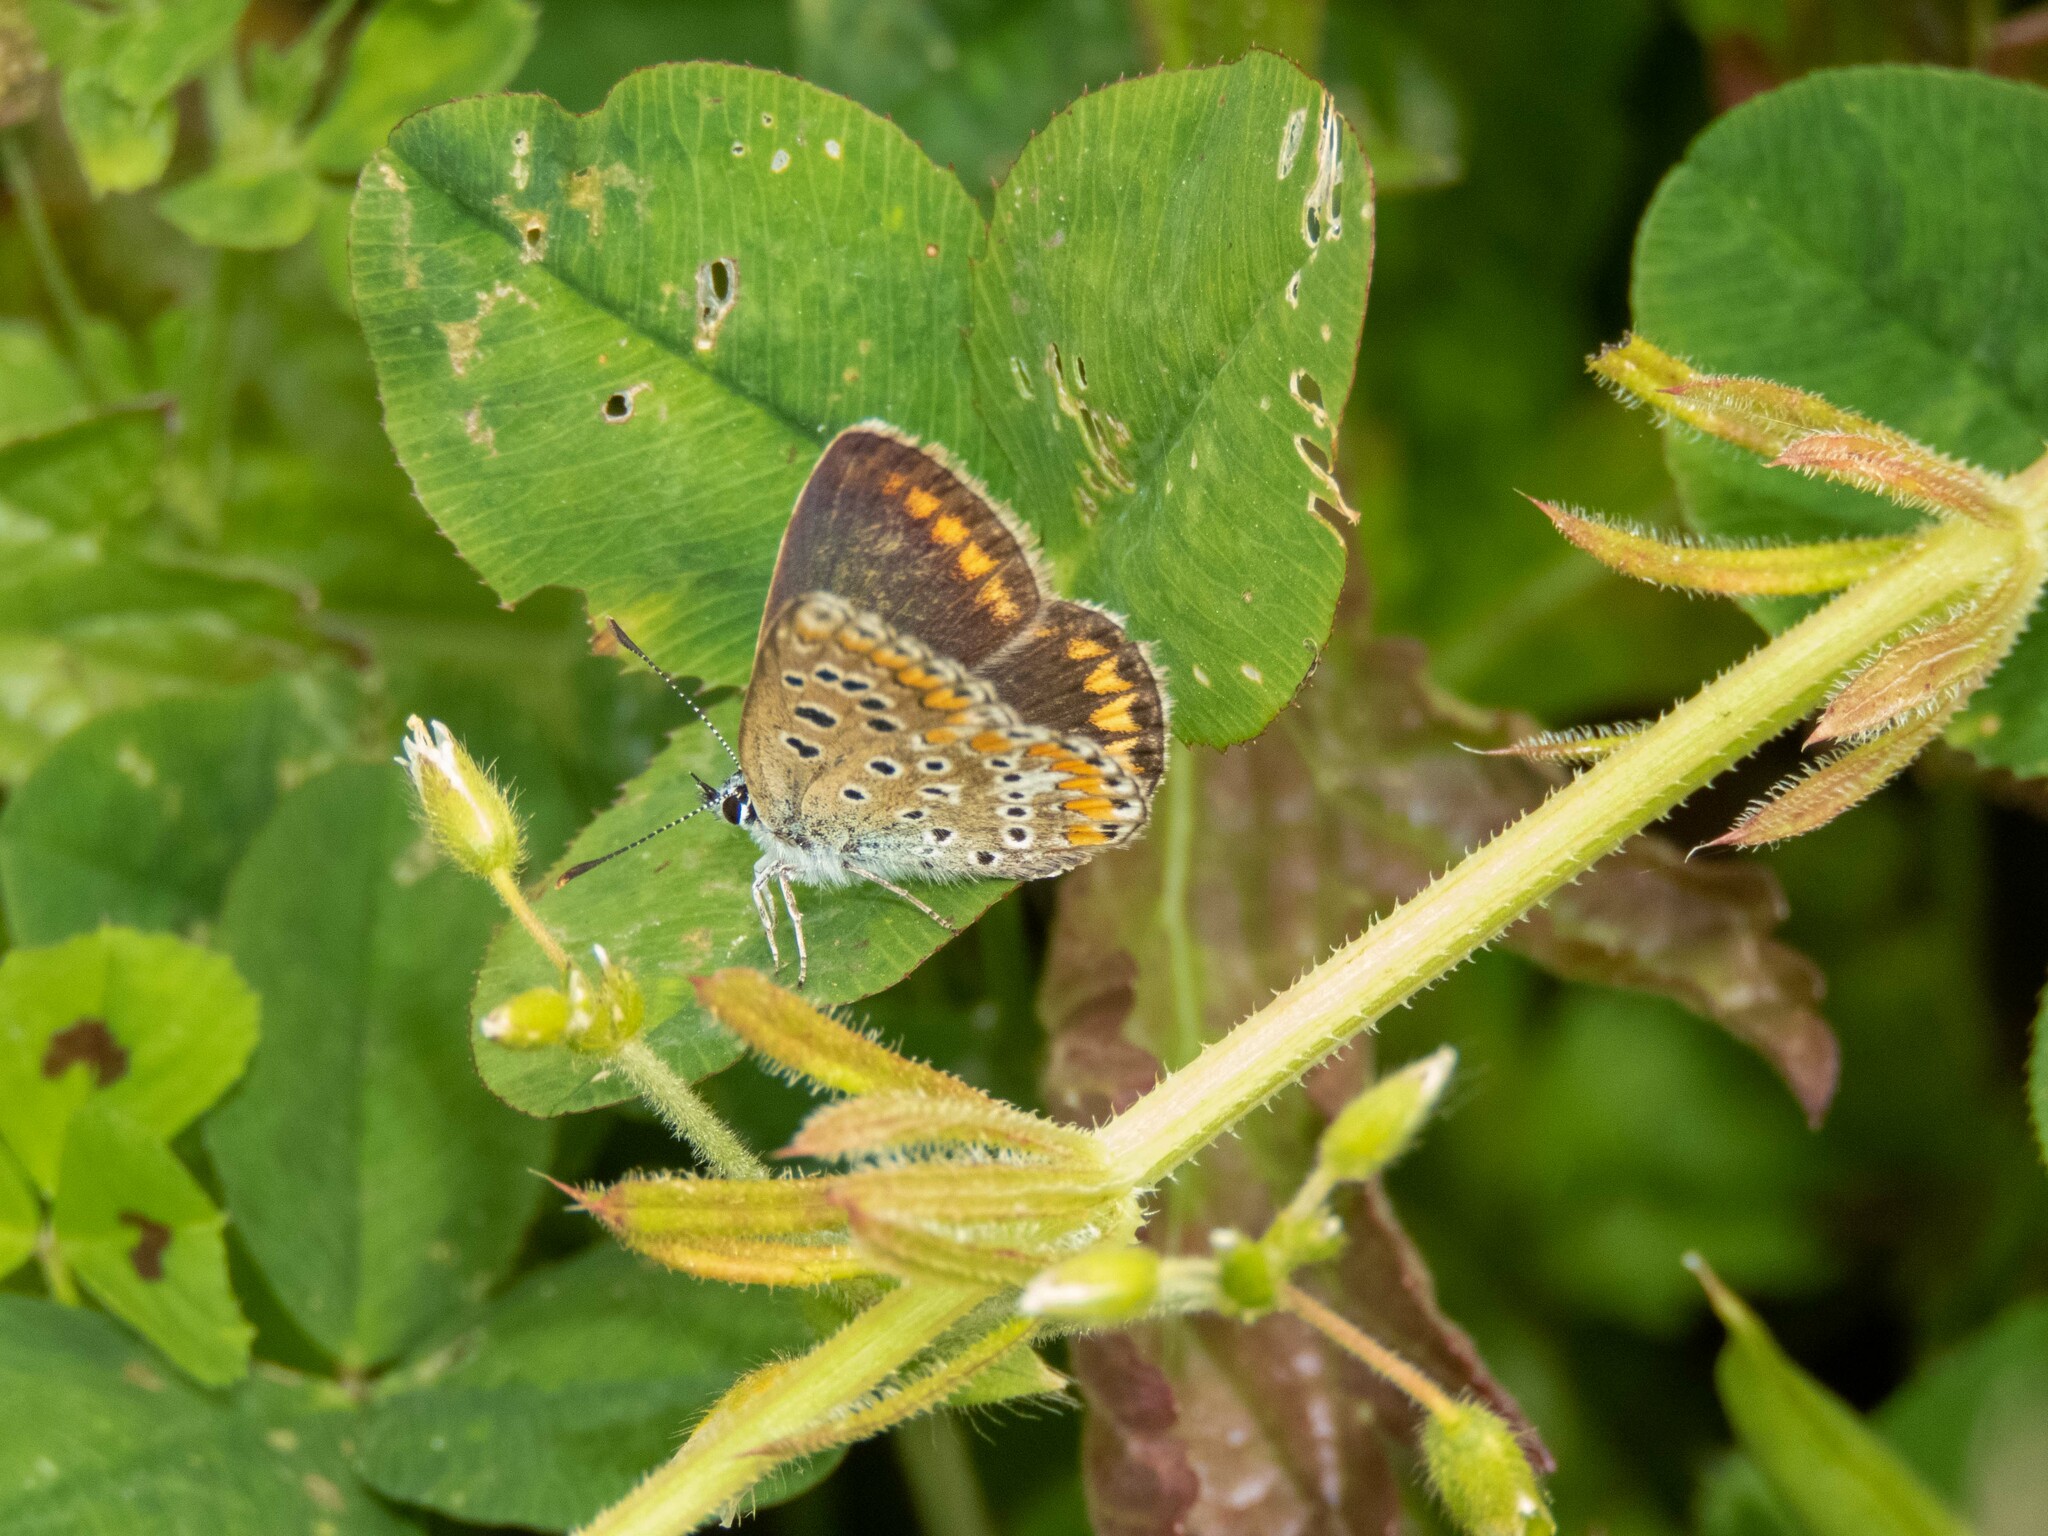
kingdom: Animalia
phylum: Arthropoda
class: Insecta
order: Lepidoptera
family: Lycaenidae
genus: Polyommatus
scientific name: Polyommatus icarus
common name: Common blue
